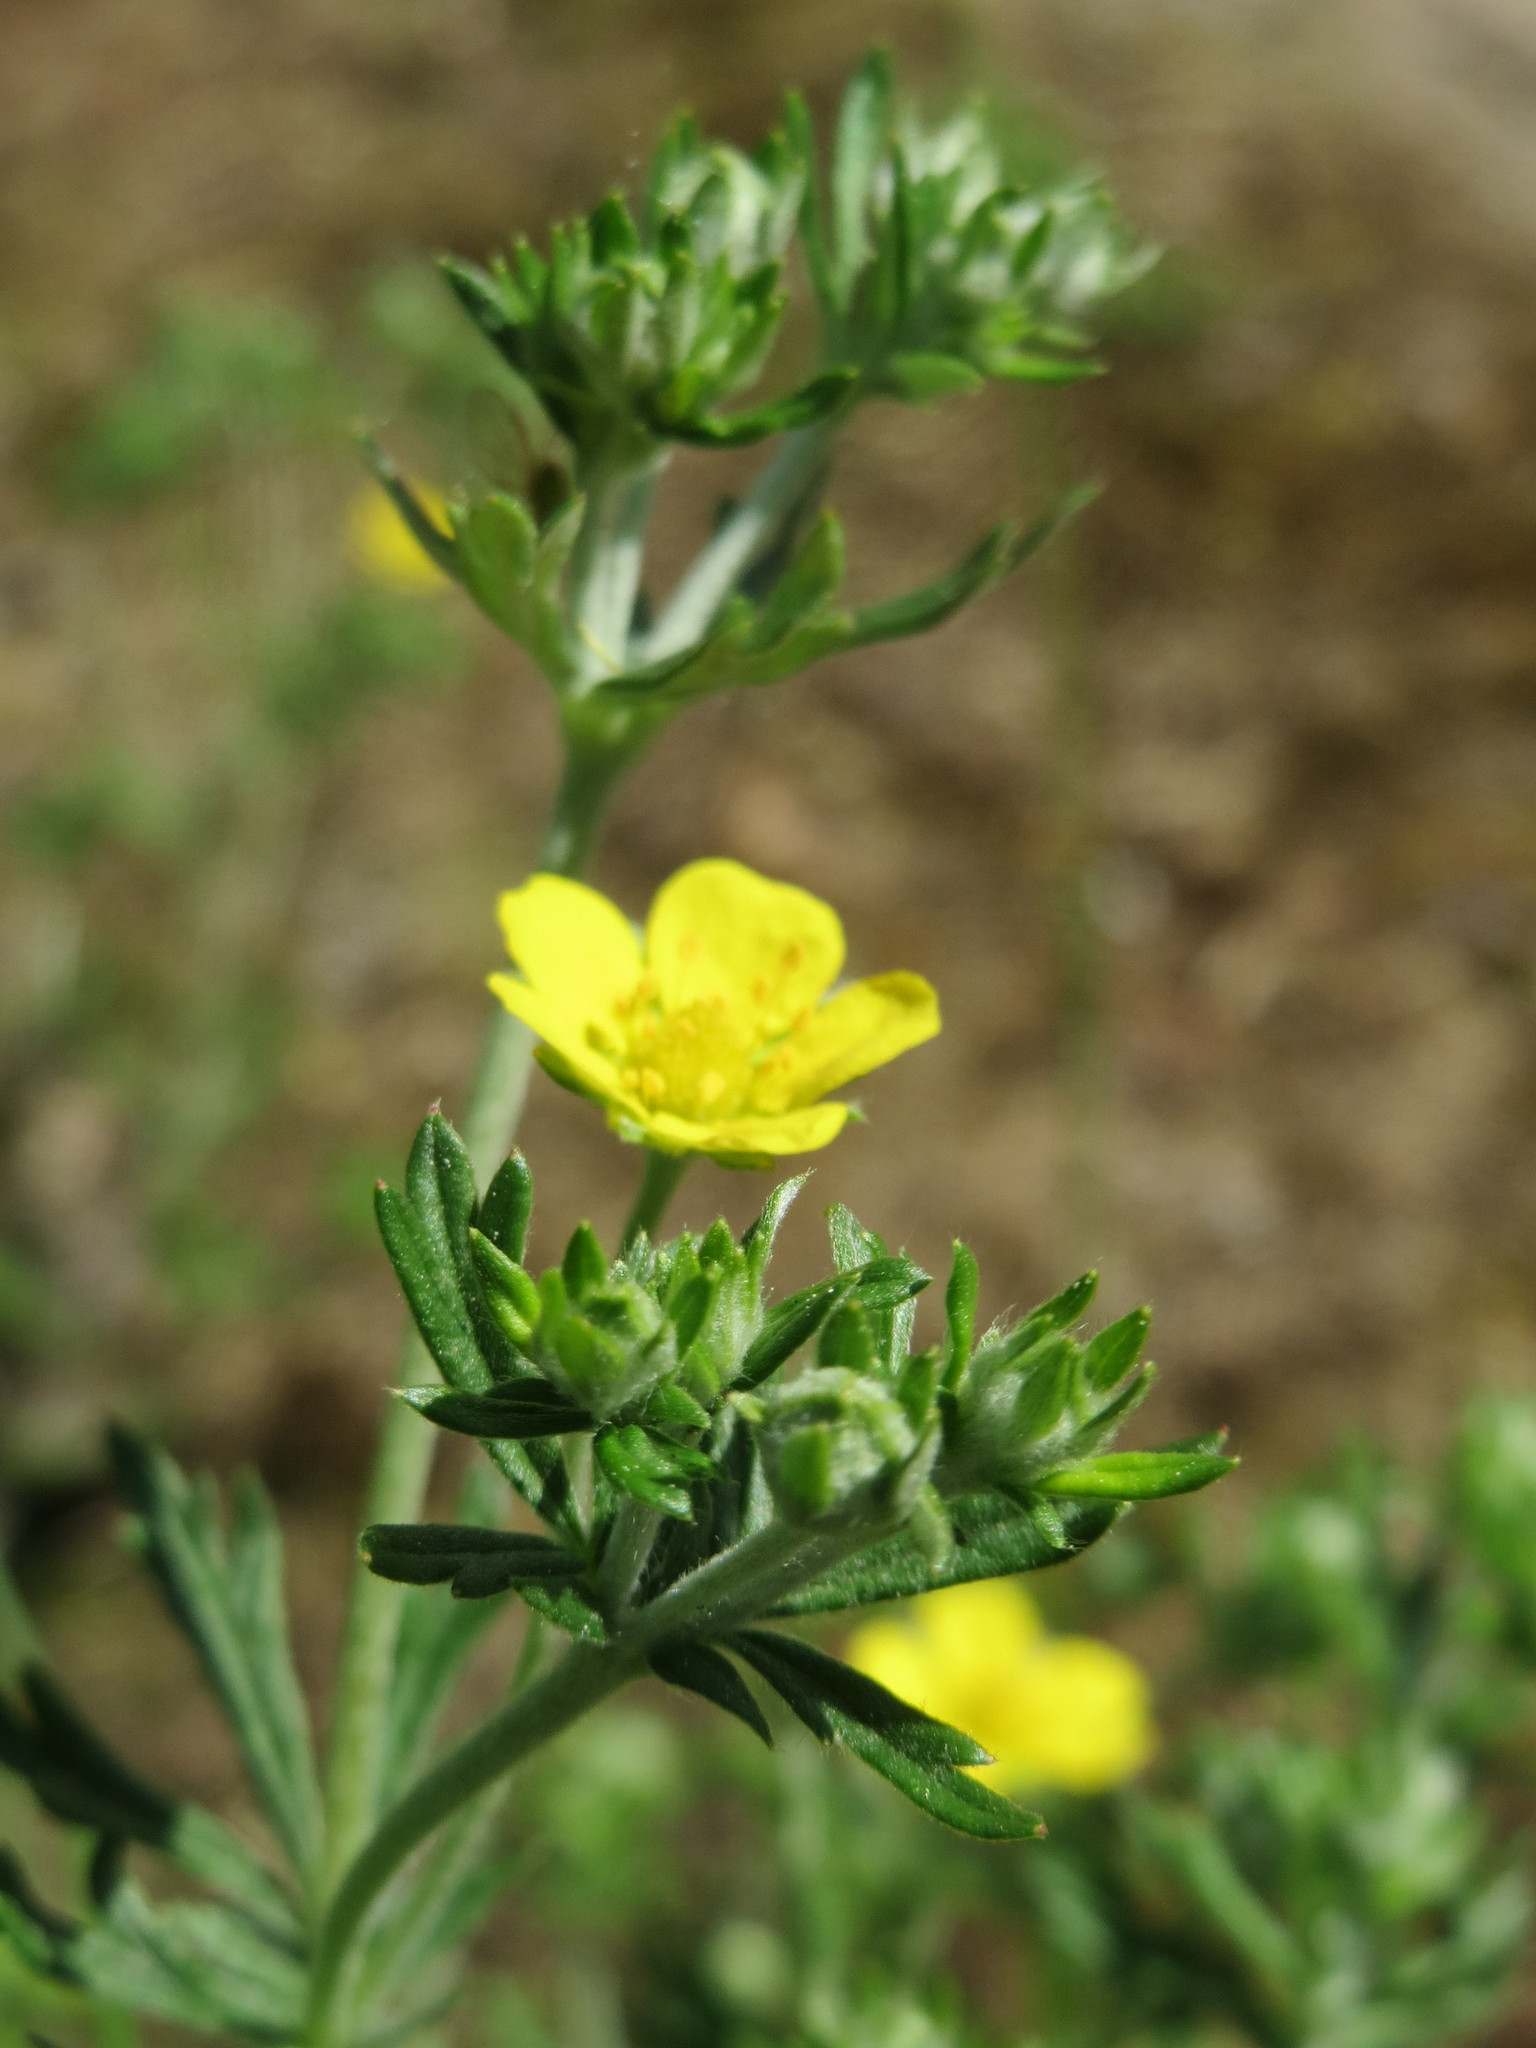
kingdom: Plantae
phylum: Tracheophyta
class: Magnoliopsida
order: Rosales
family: Rosaceae
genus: Potentilla
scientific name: Potentilla argentea
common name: Hoary cinquefoil
